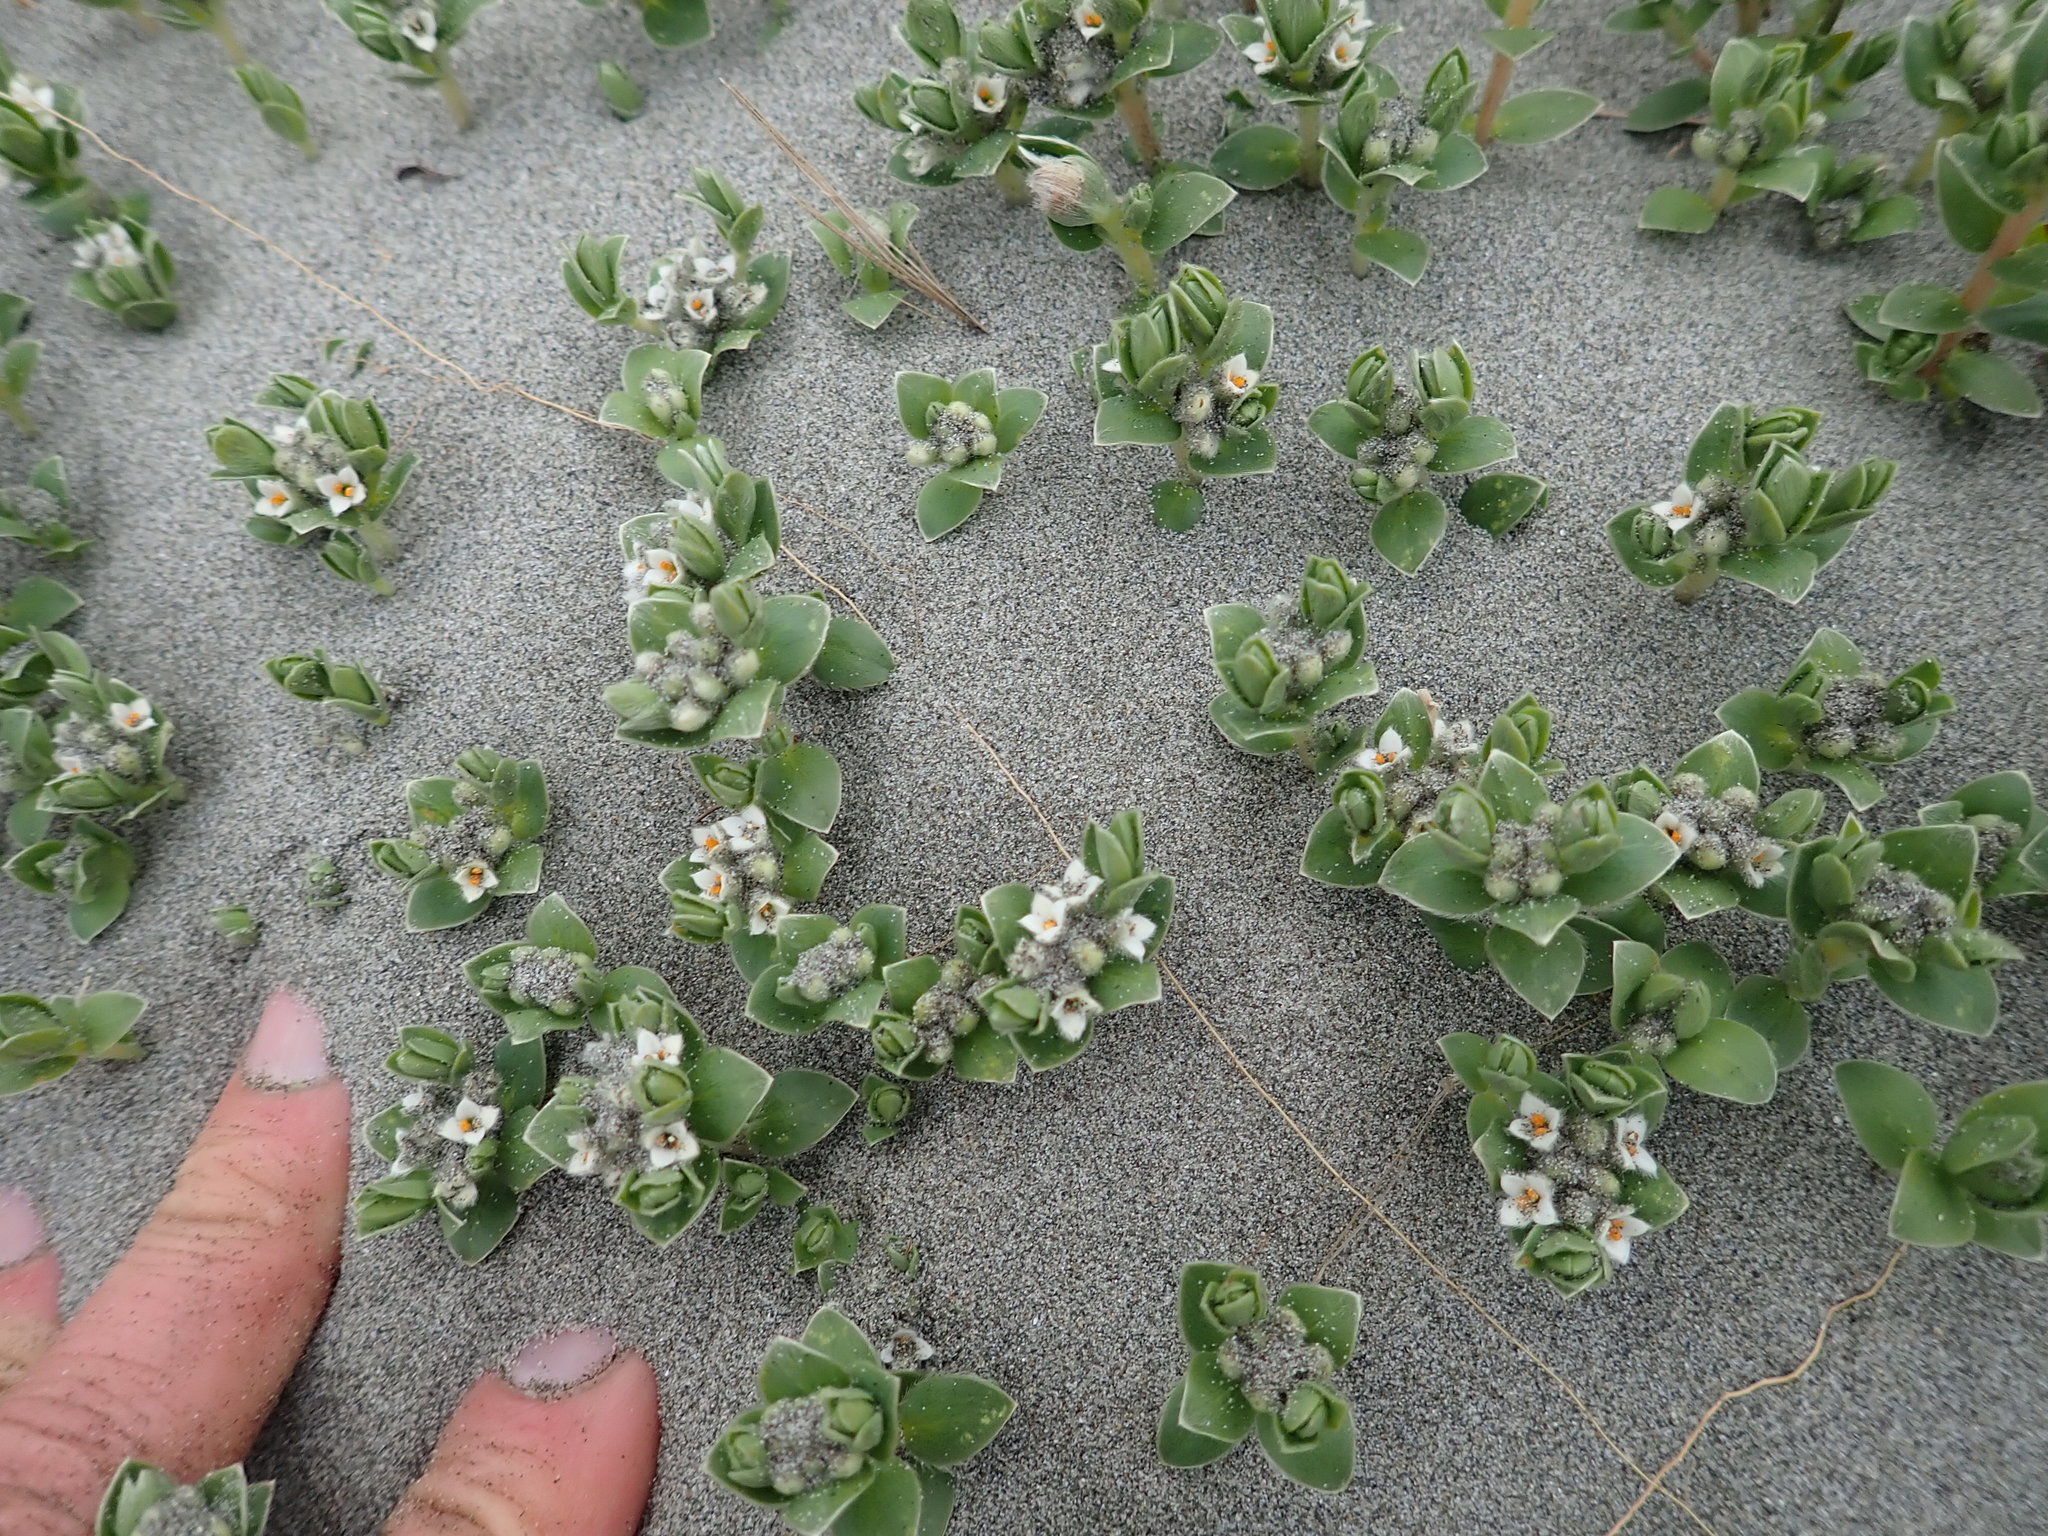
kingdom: Plantae
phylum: Tracheophyta
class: Magnoliopsida
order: Malvales
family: Thymelaeaceae
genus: Pimelea
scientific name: Pimelea villosa
